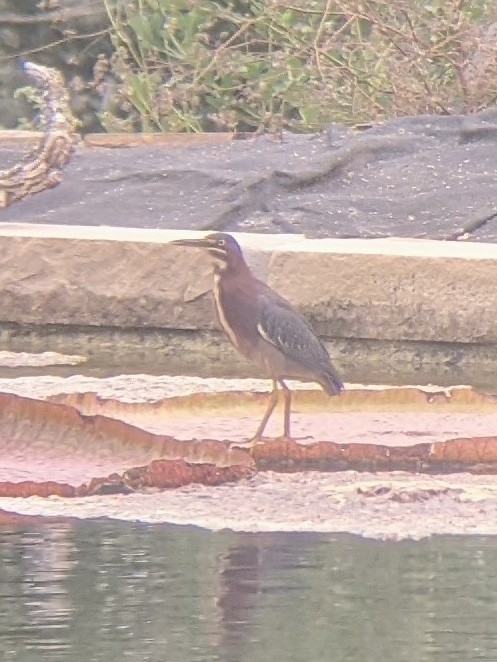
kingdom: Animalia
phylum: Chordata
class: Aves
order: Pelecaniformes
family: Ardeidae
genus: Butorides
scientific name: Butorides virescens
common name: Green heron
